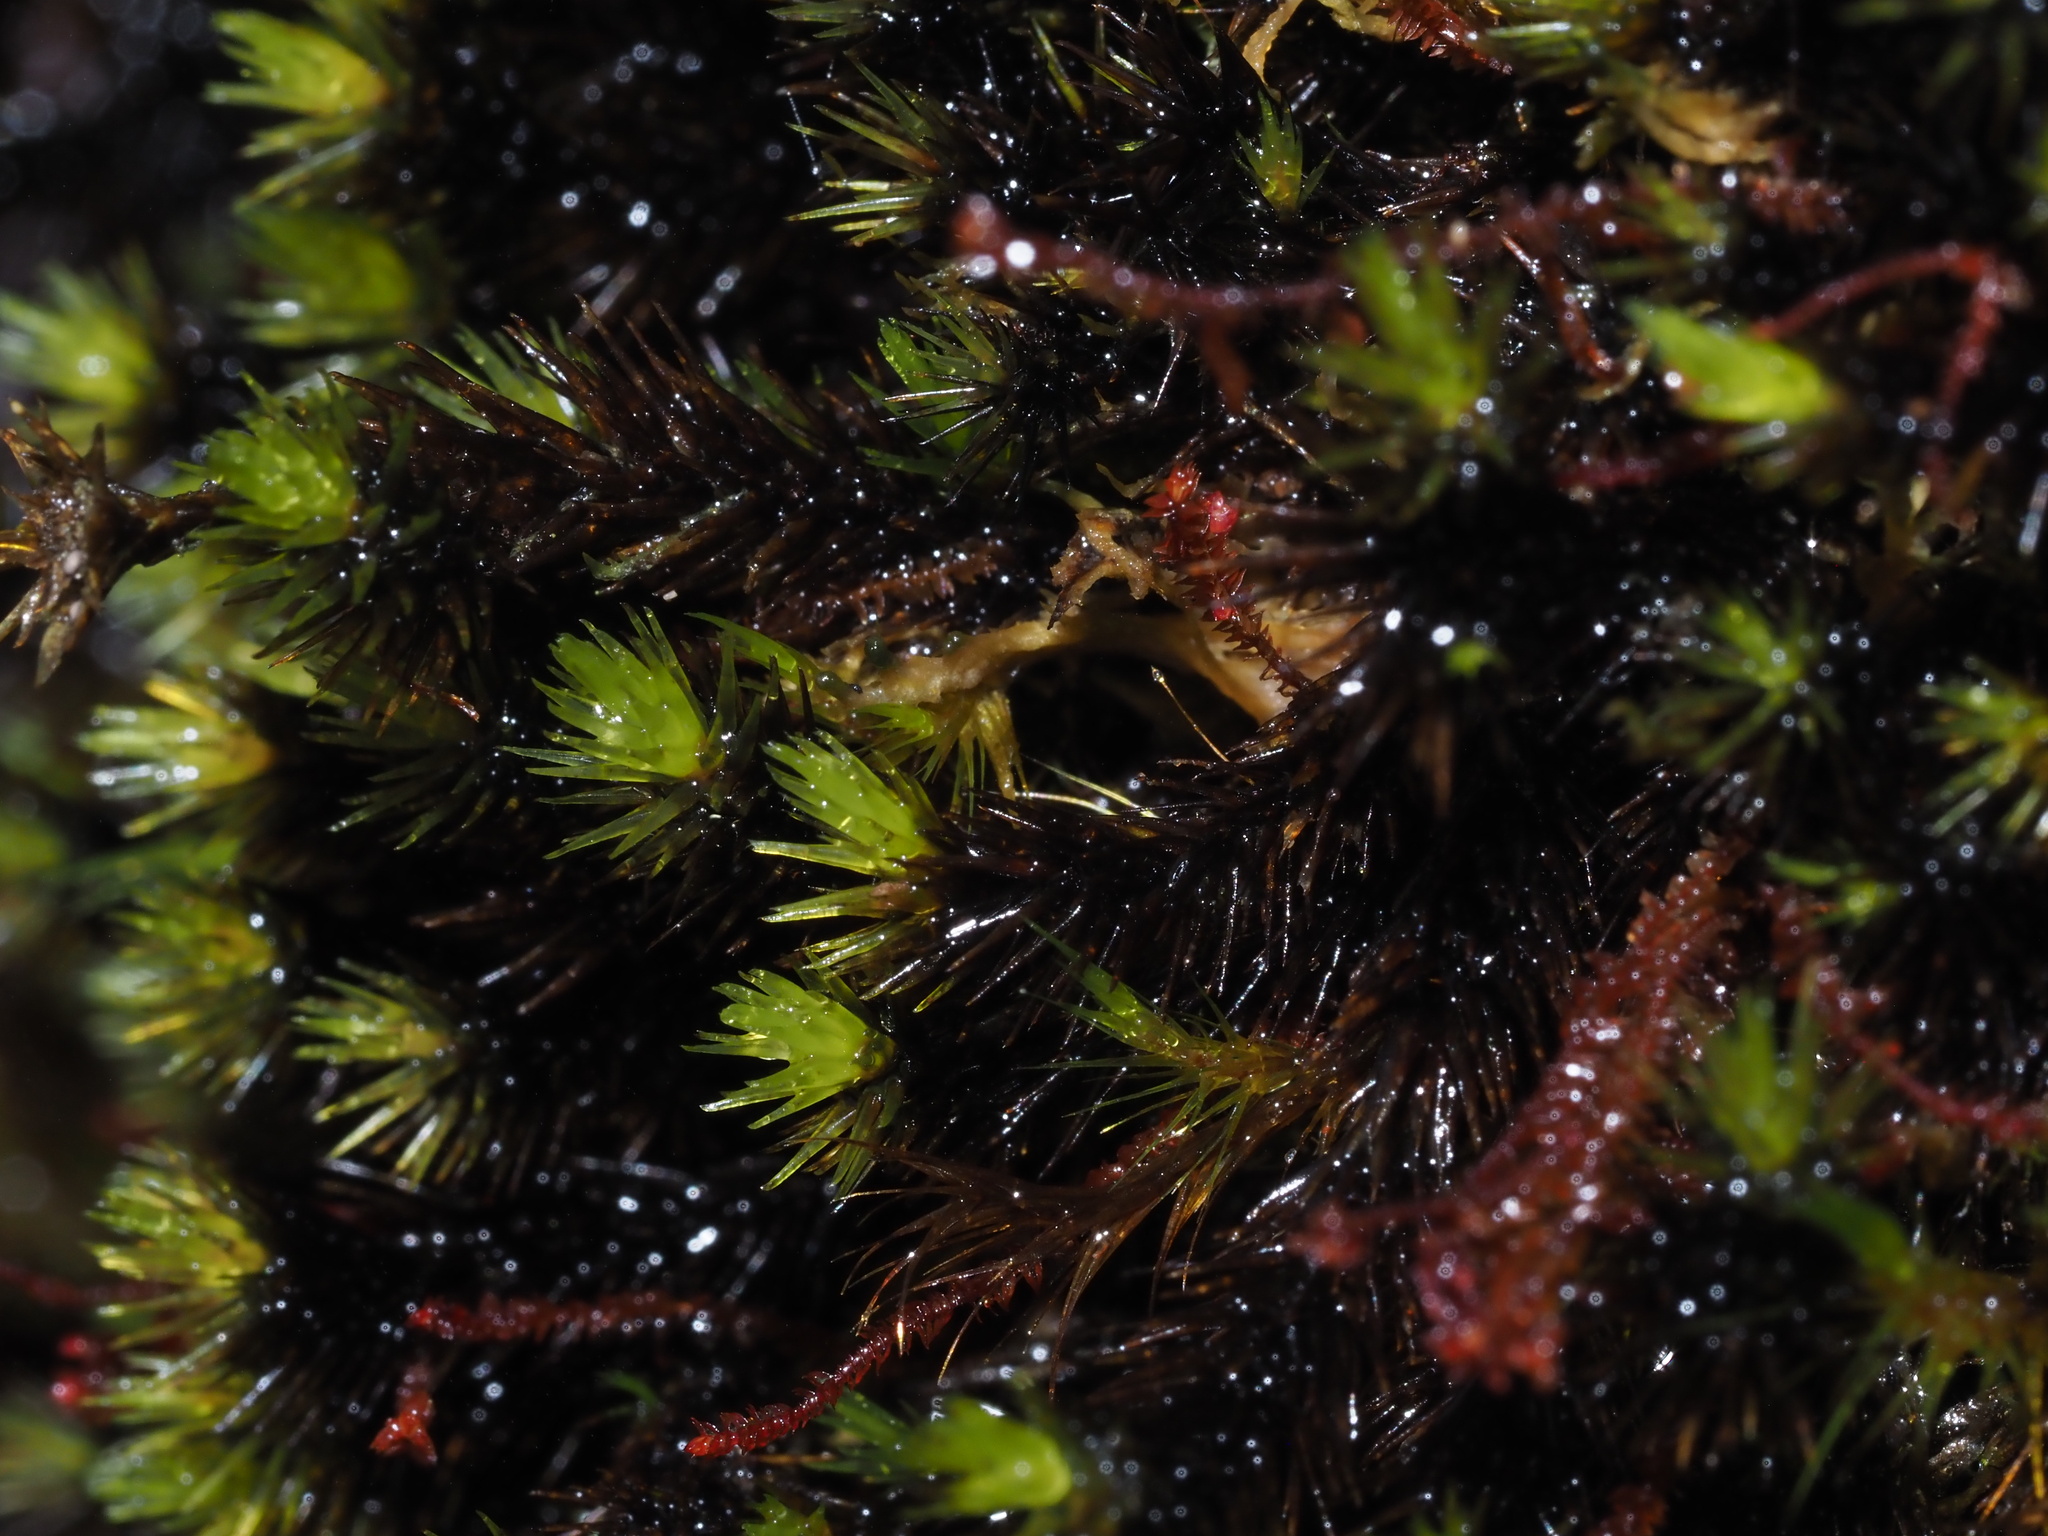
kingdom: Plantae
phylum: Bryophyta
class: Bryopsida
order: Dicranales
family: Leucobryaceae
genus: Campylopus
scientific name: Campylopus umbellatus
